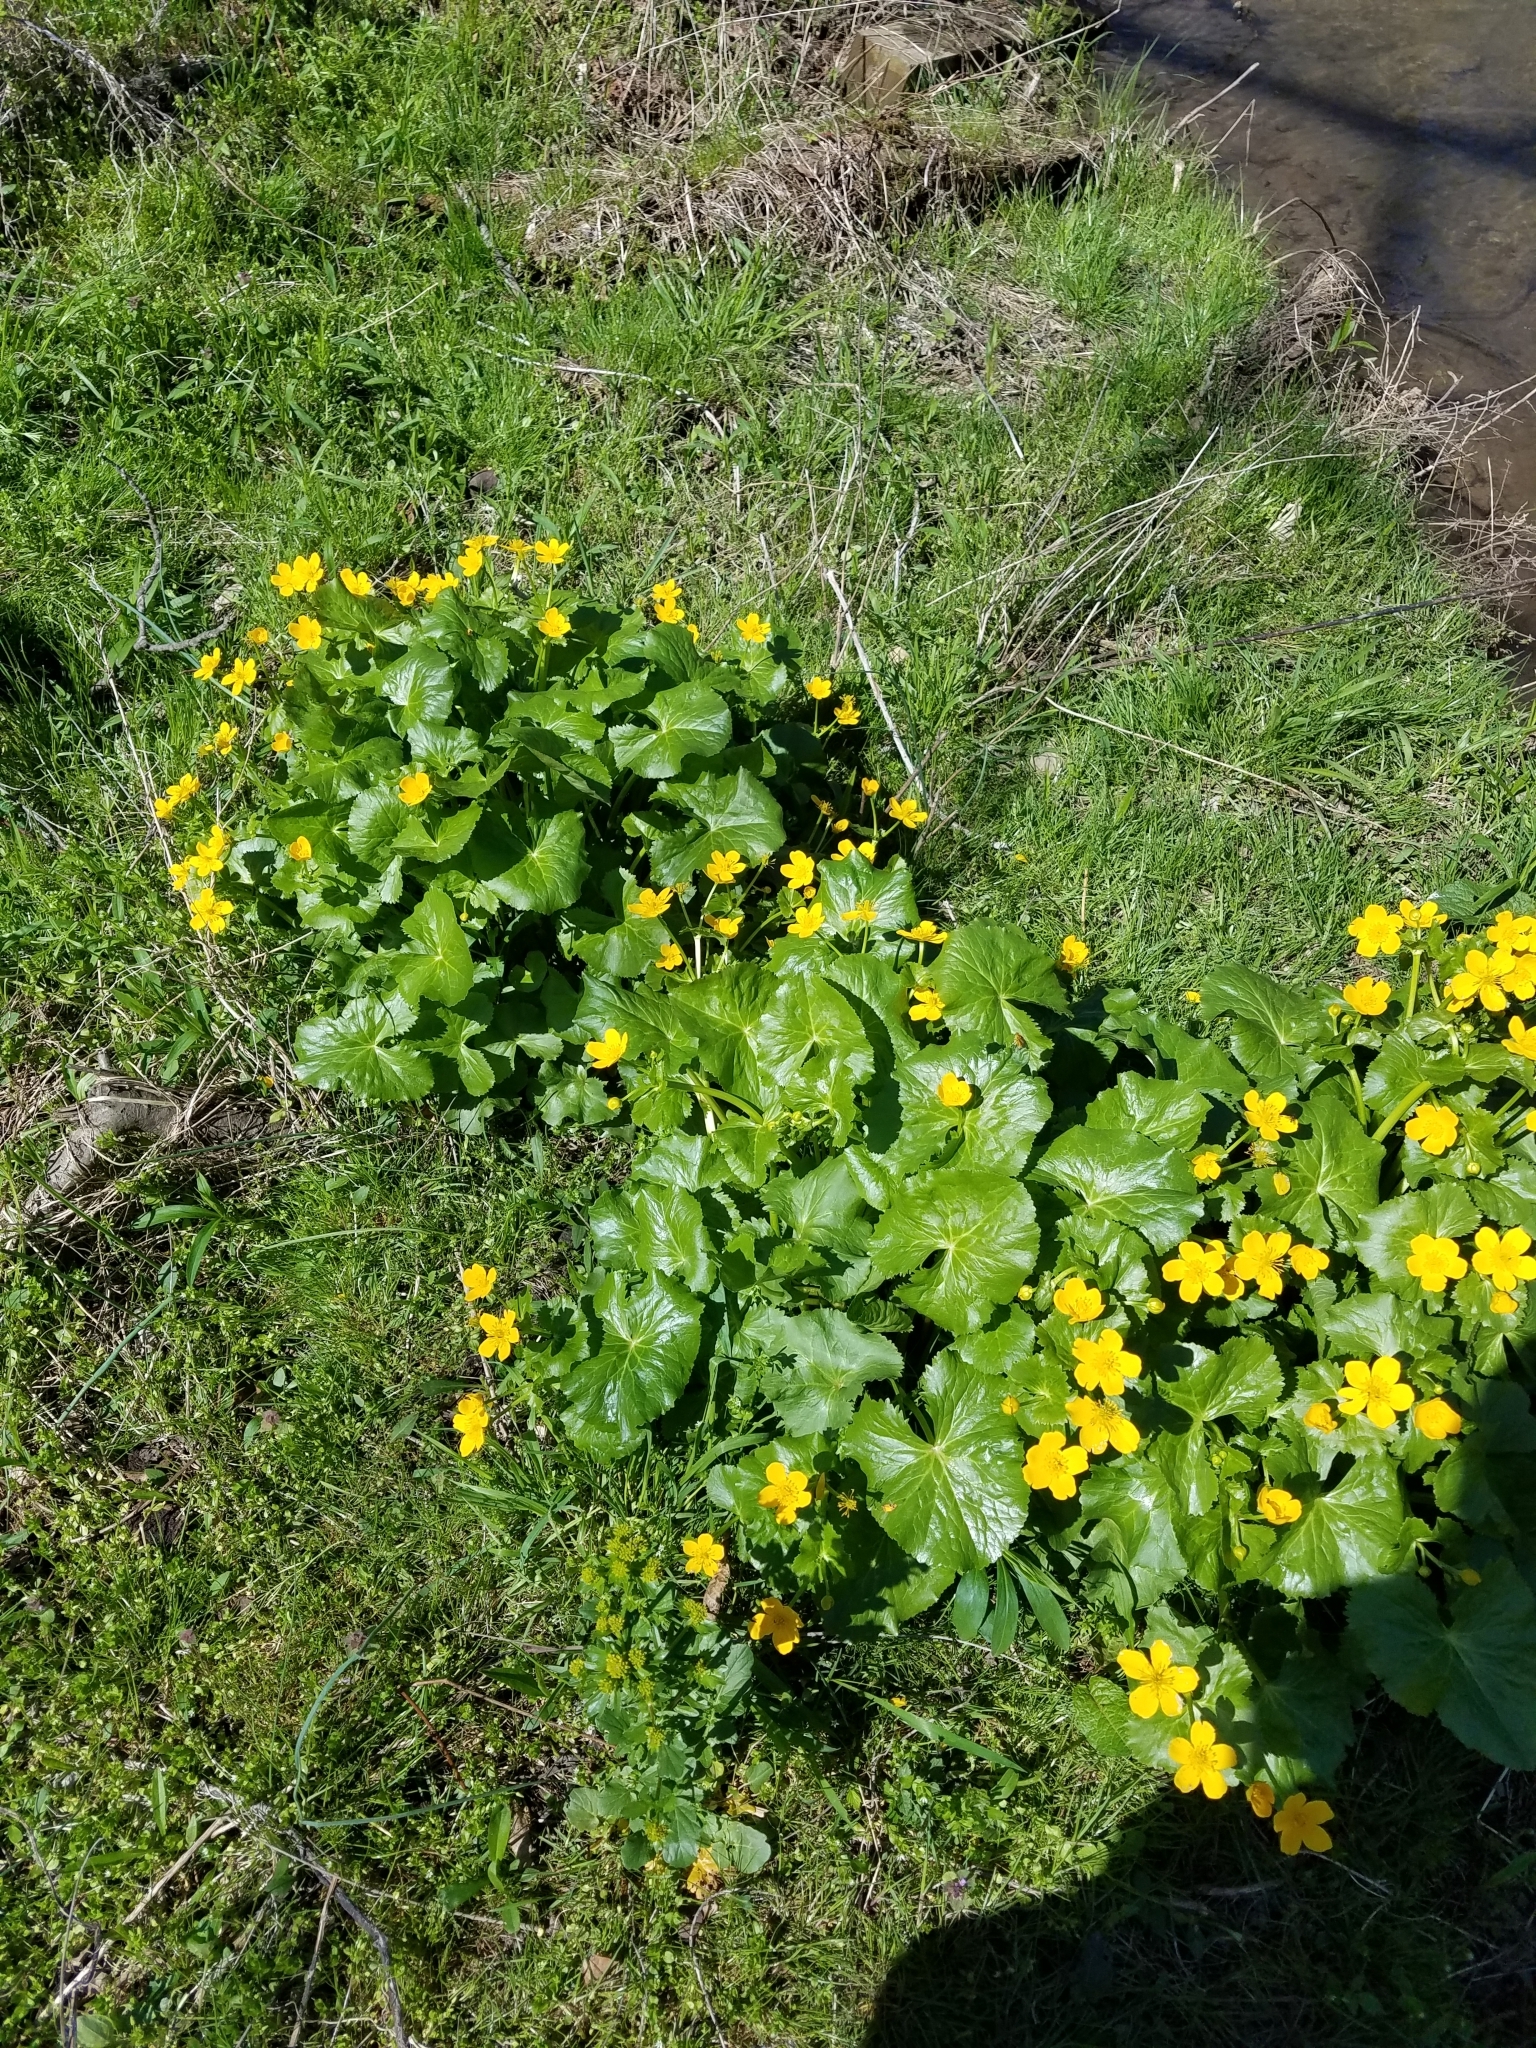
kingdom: Plantae
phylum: Tracheophyta
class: Magnoliopsida
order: Ranunculales
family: Ranunculaceae
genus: Caltha
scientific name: Caltha palustris
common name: Marsh marigold
